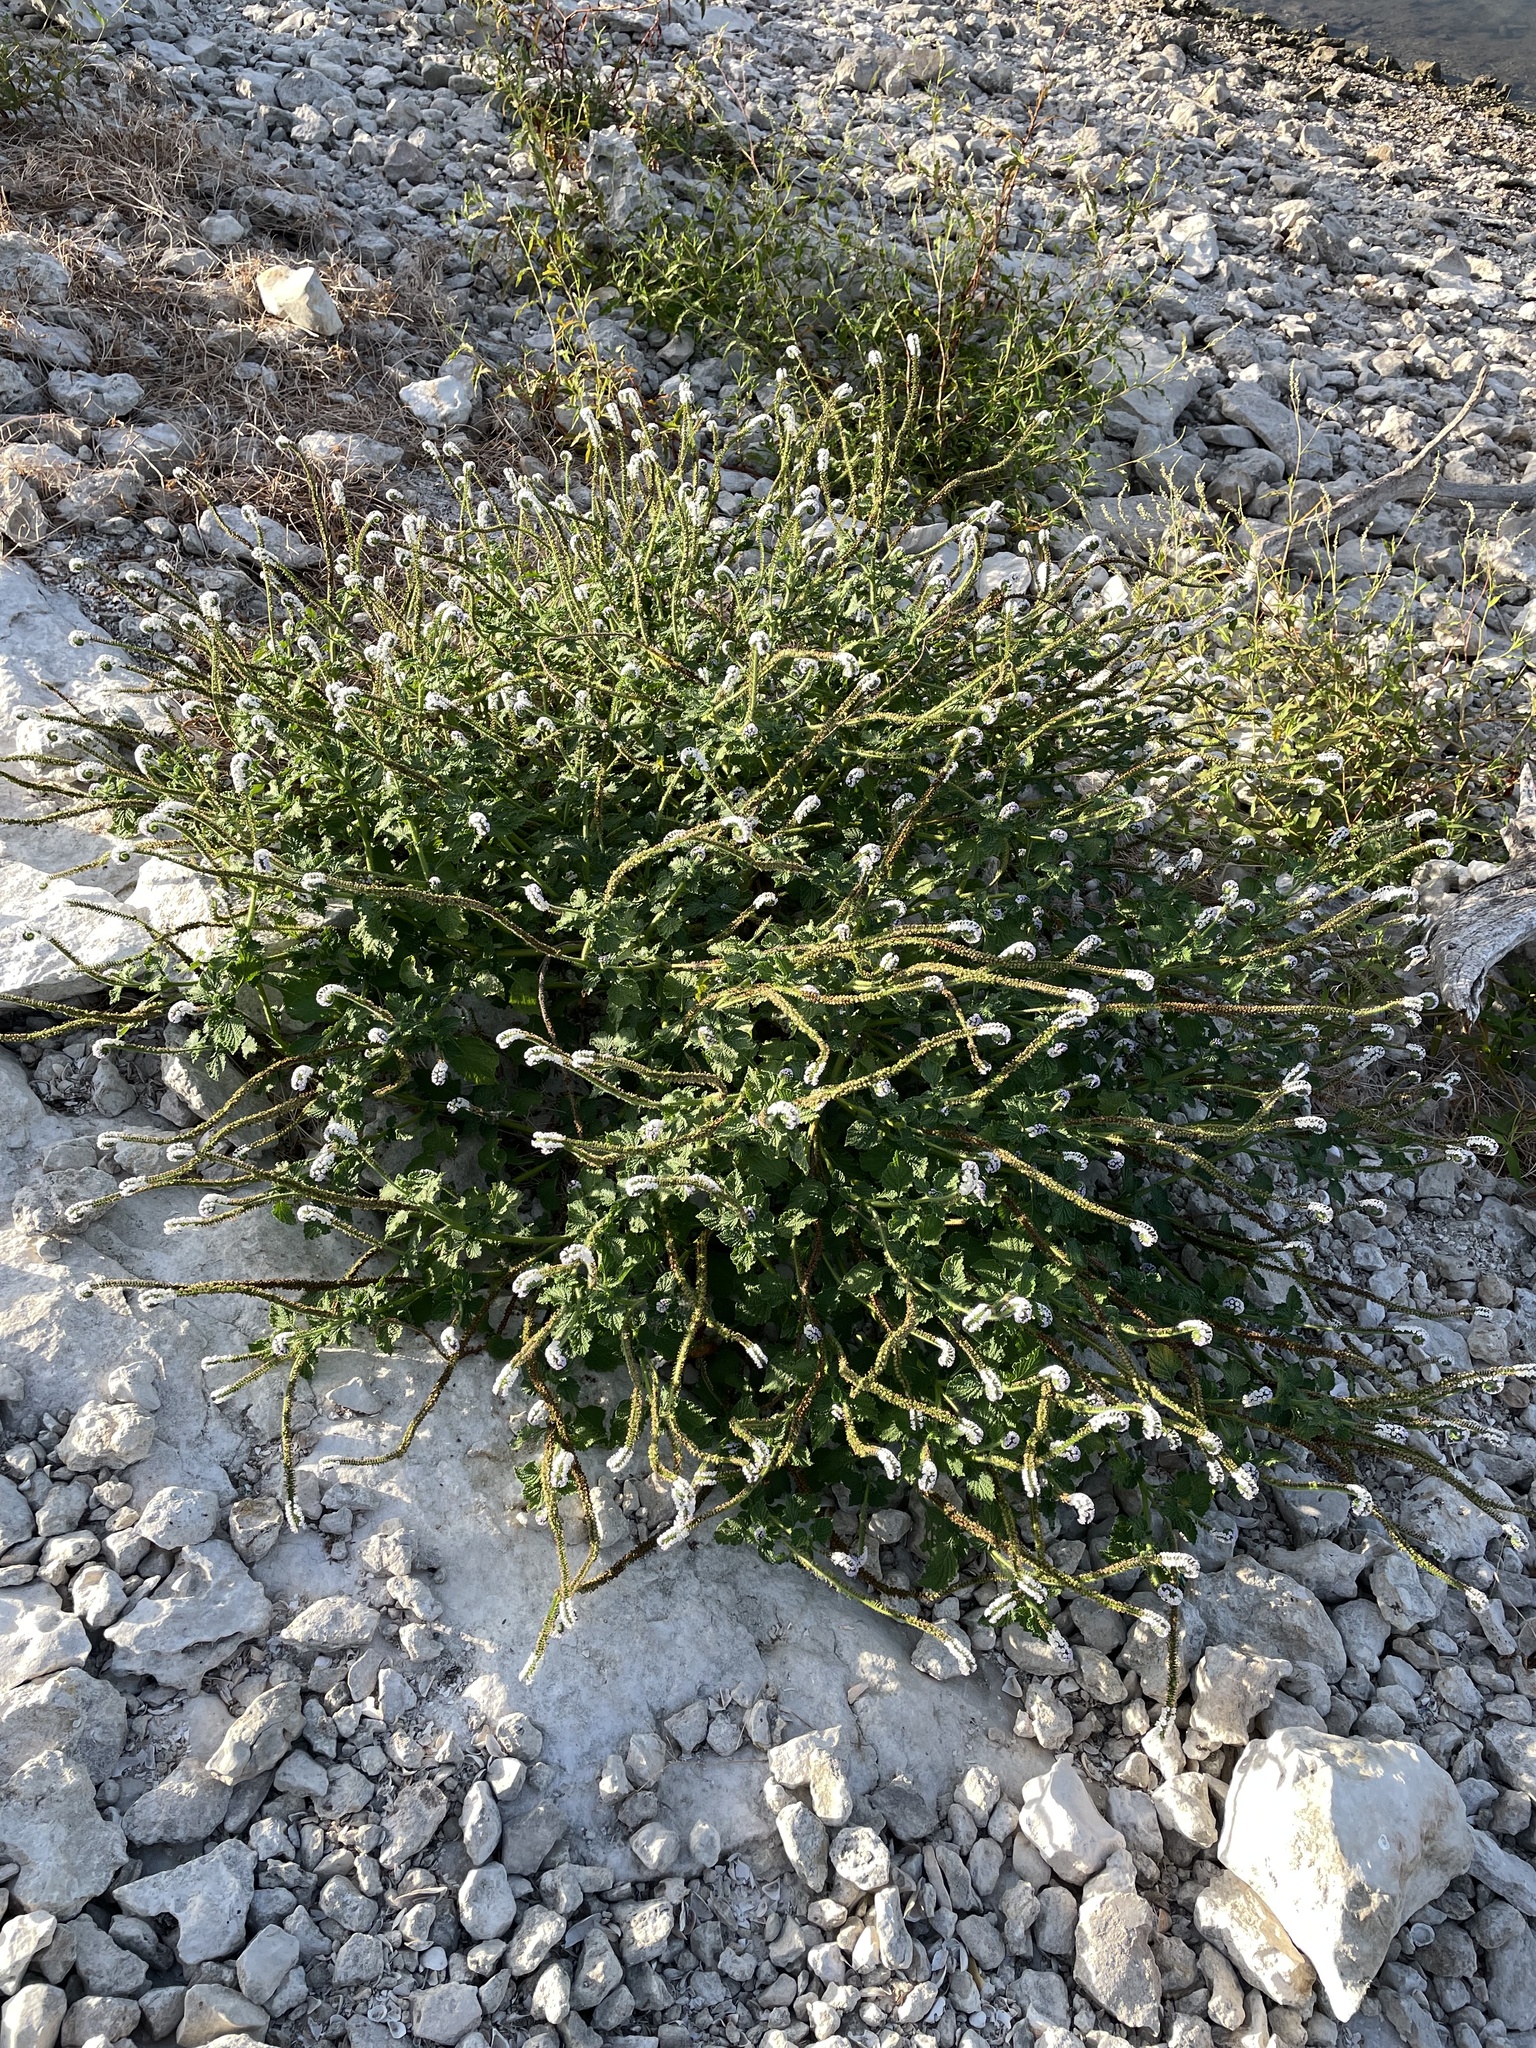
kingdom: Plantae
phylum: Tracheophyta
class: Magnoliopsida
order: Boraginales
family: Heliotropiaceae
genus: Heliotropium
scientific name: Heliotropium indicum
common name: Indian heliotrope
